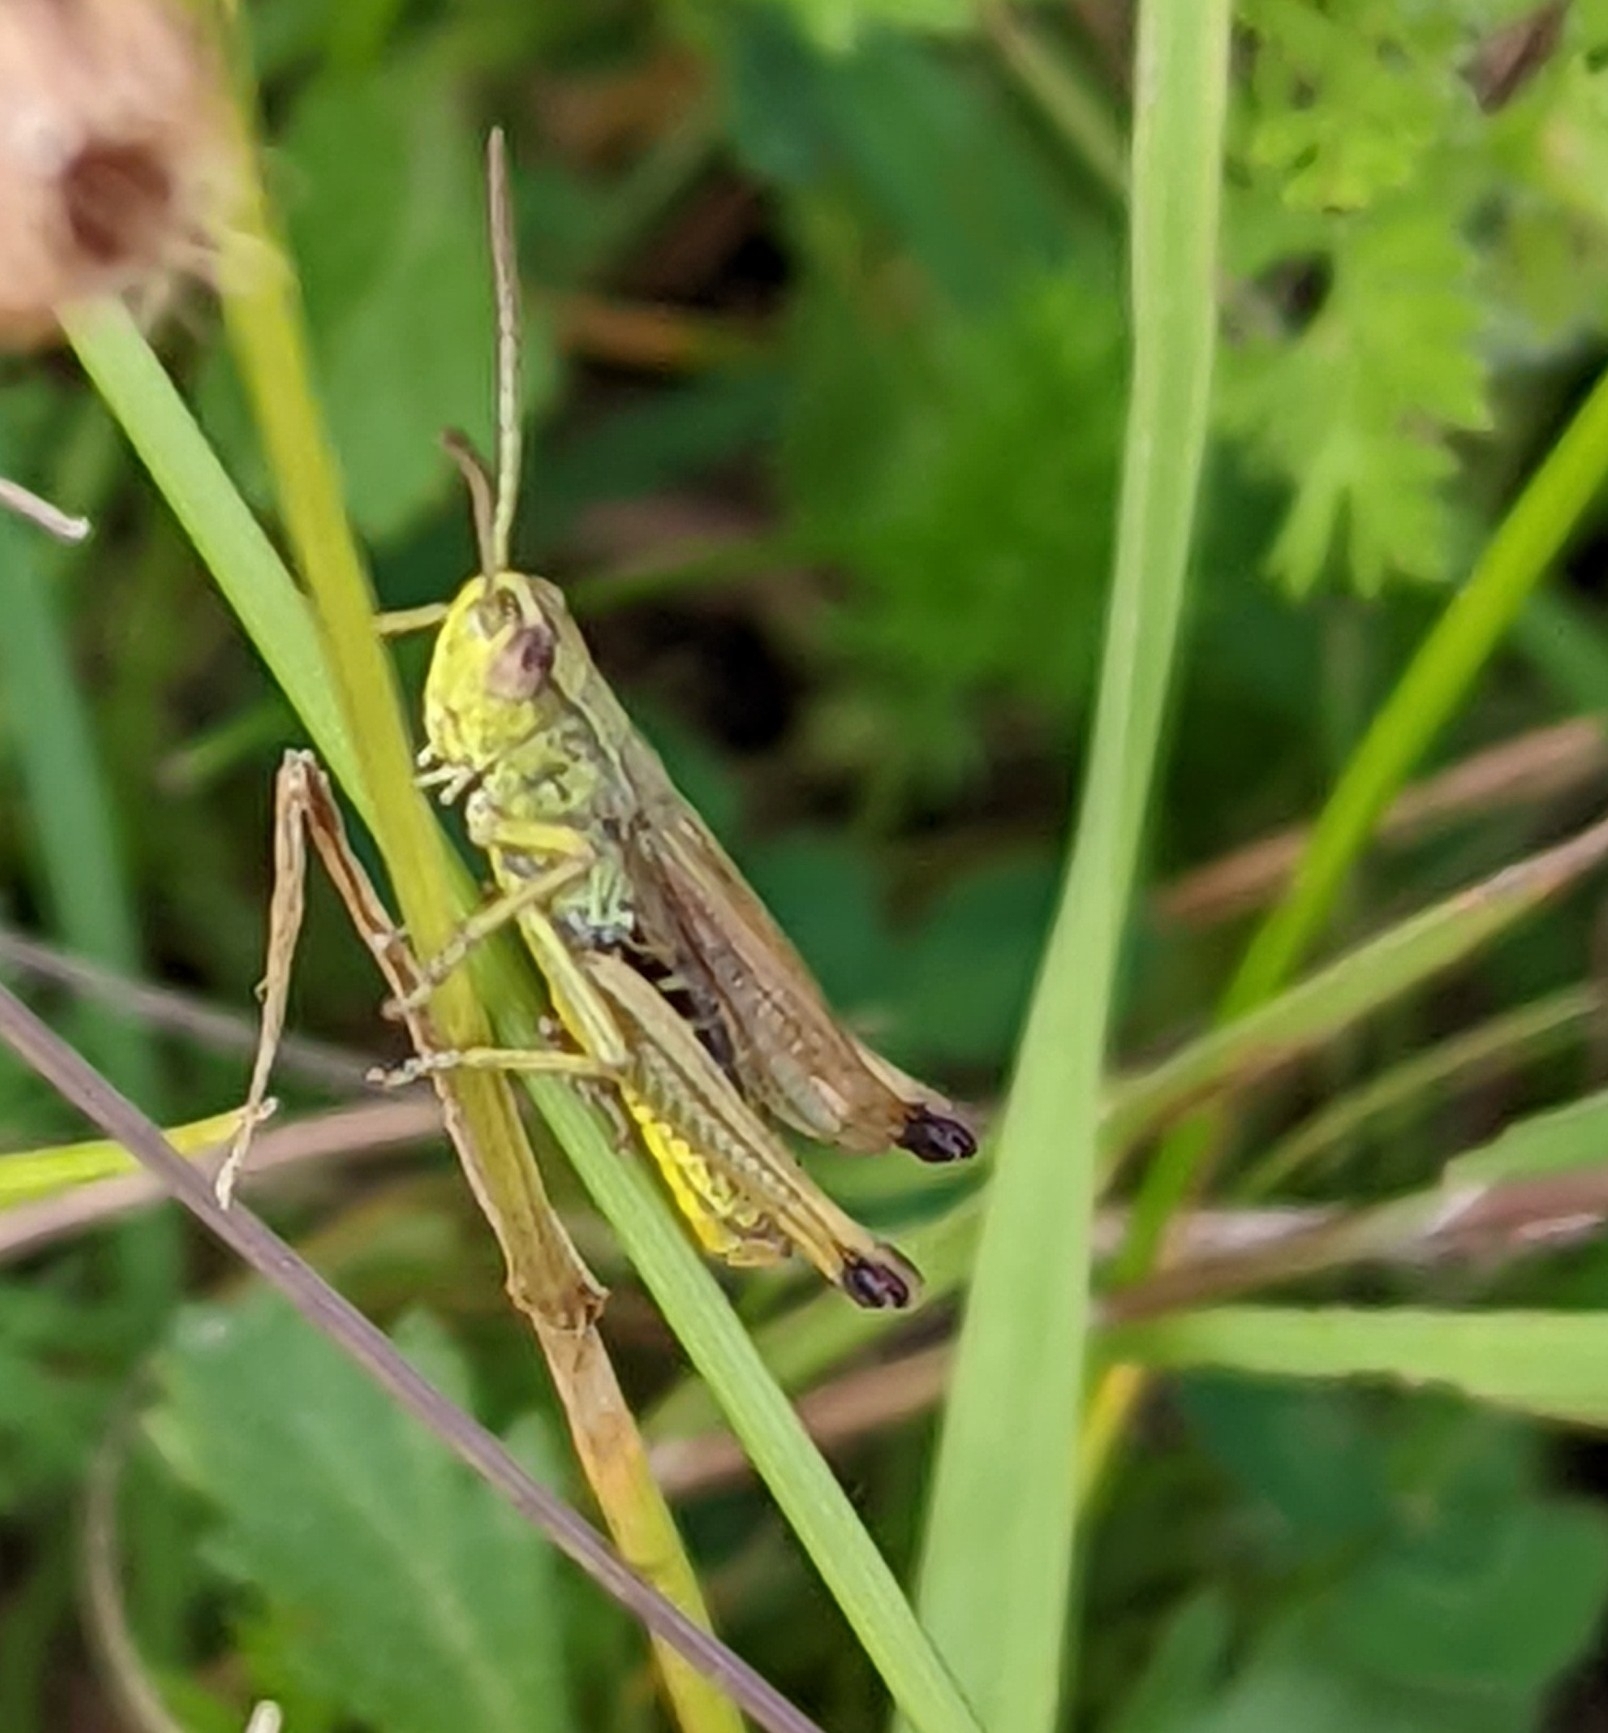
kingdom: Animalia
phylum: Arthropoda
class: Insecta
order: Orthoptera
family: Acrididae
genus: Pseudochorthippus
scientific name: Pseudochorthippus parallelus
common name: Meadow grasshopper
